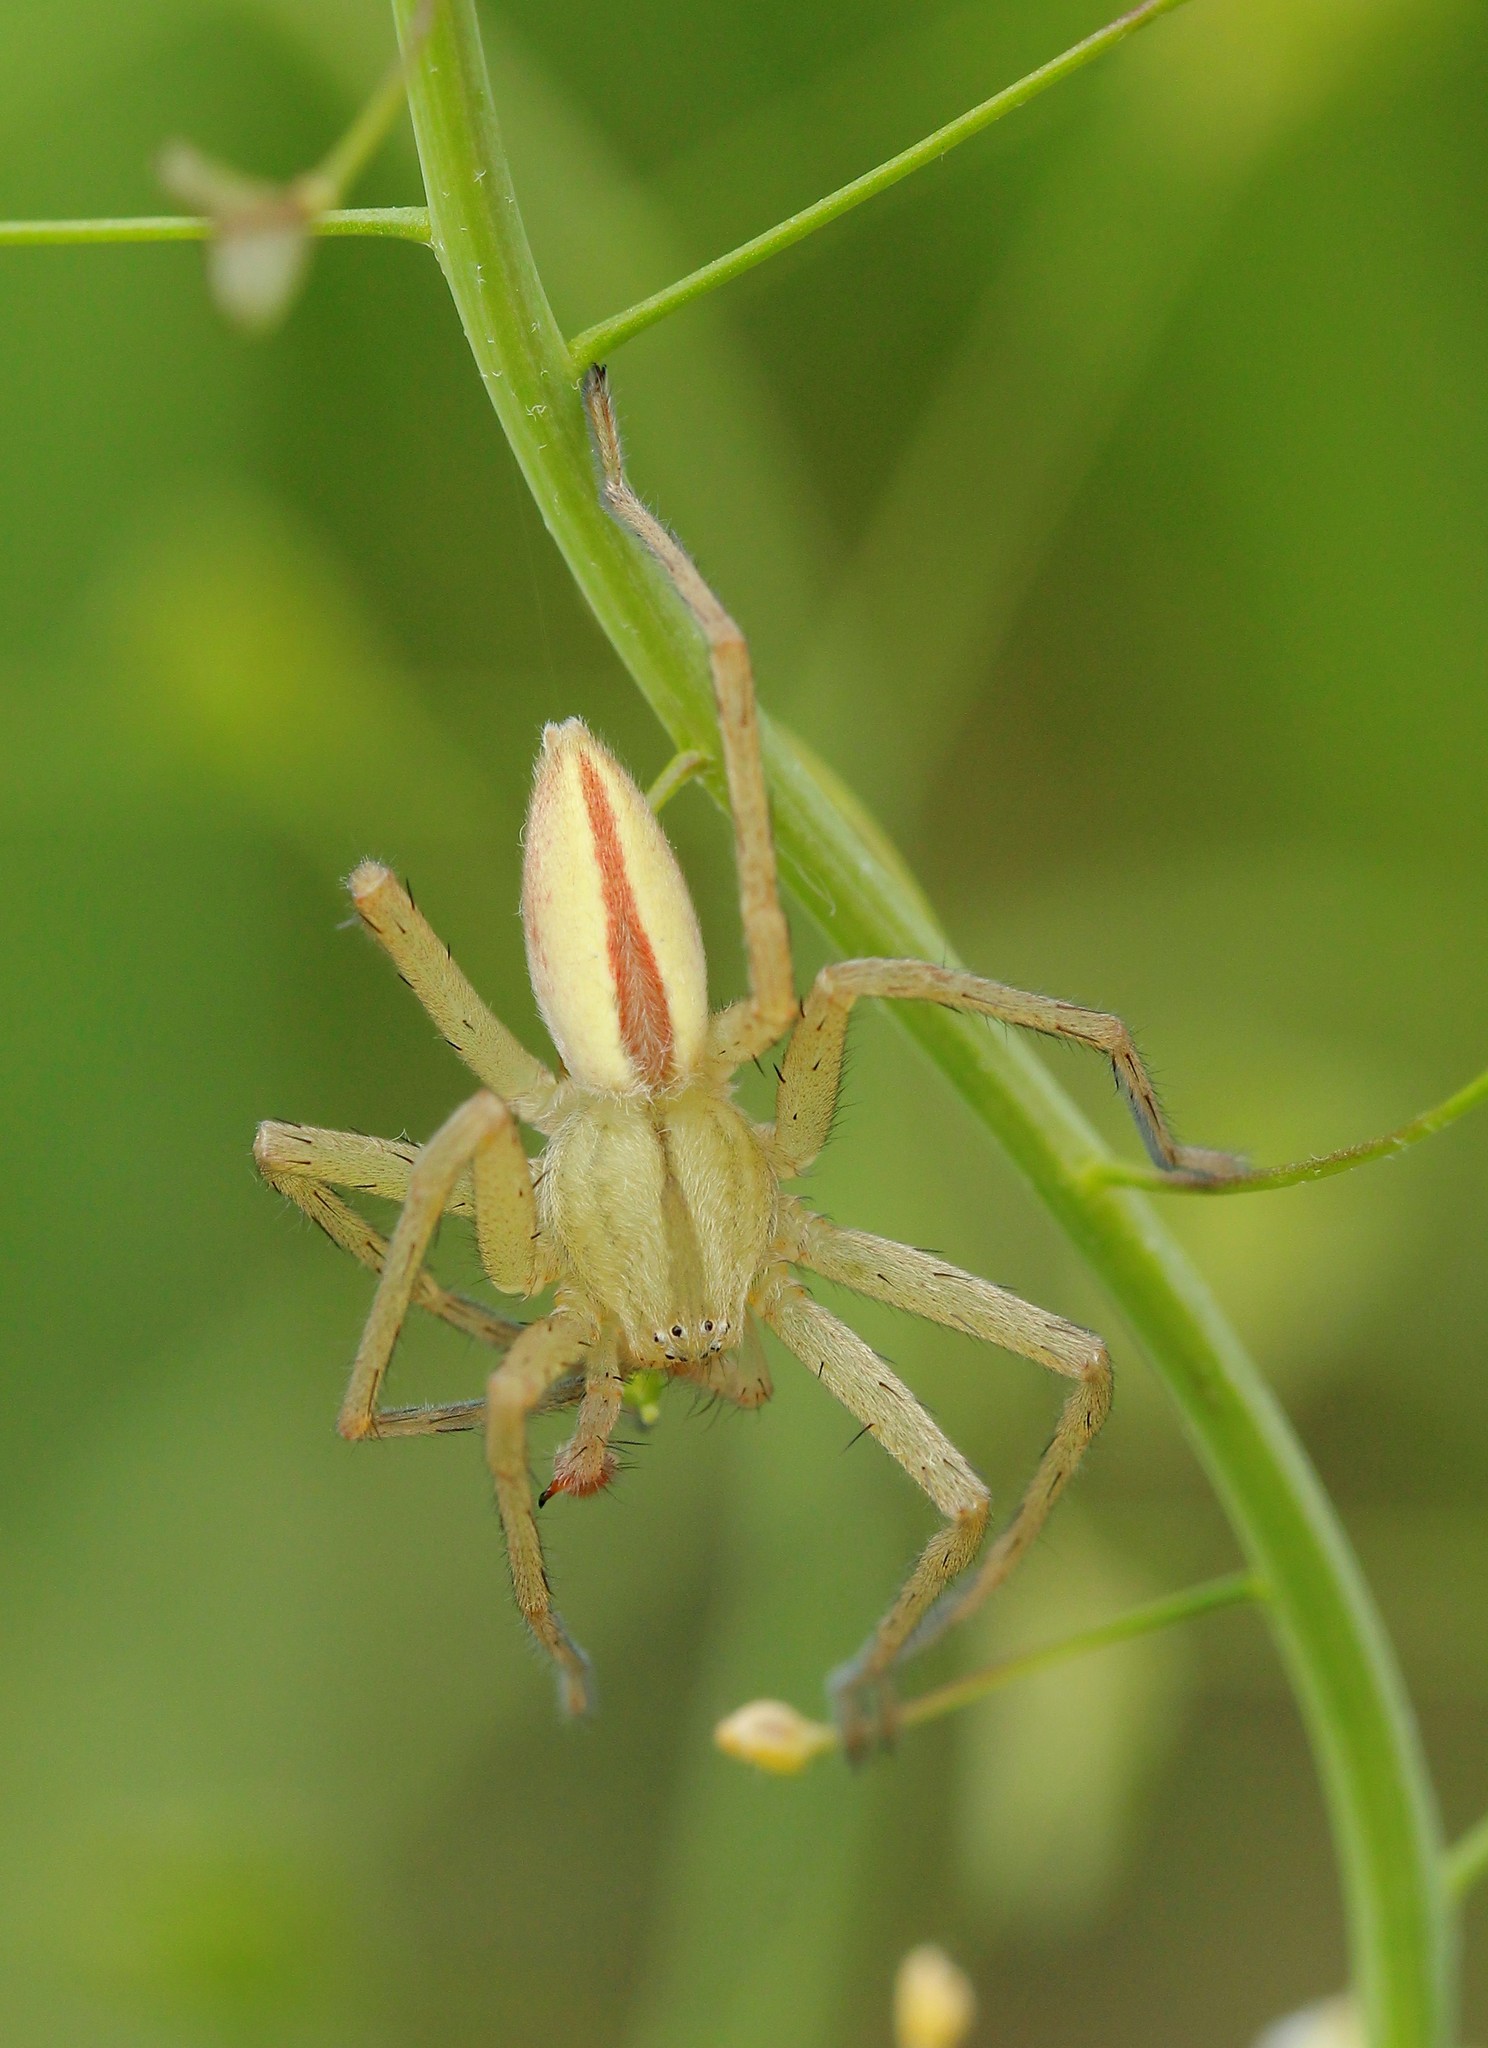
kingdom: Animalia
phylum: Arthropoda
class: Arachnida
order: Araneae
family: Sparassidae
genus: Micrommata
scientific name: Micrommata virescens
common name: Green spider
